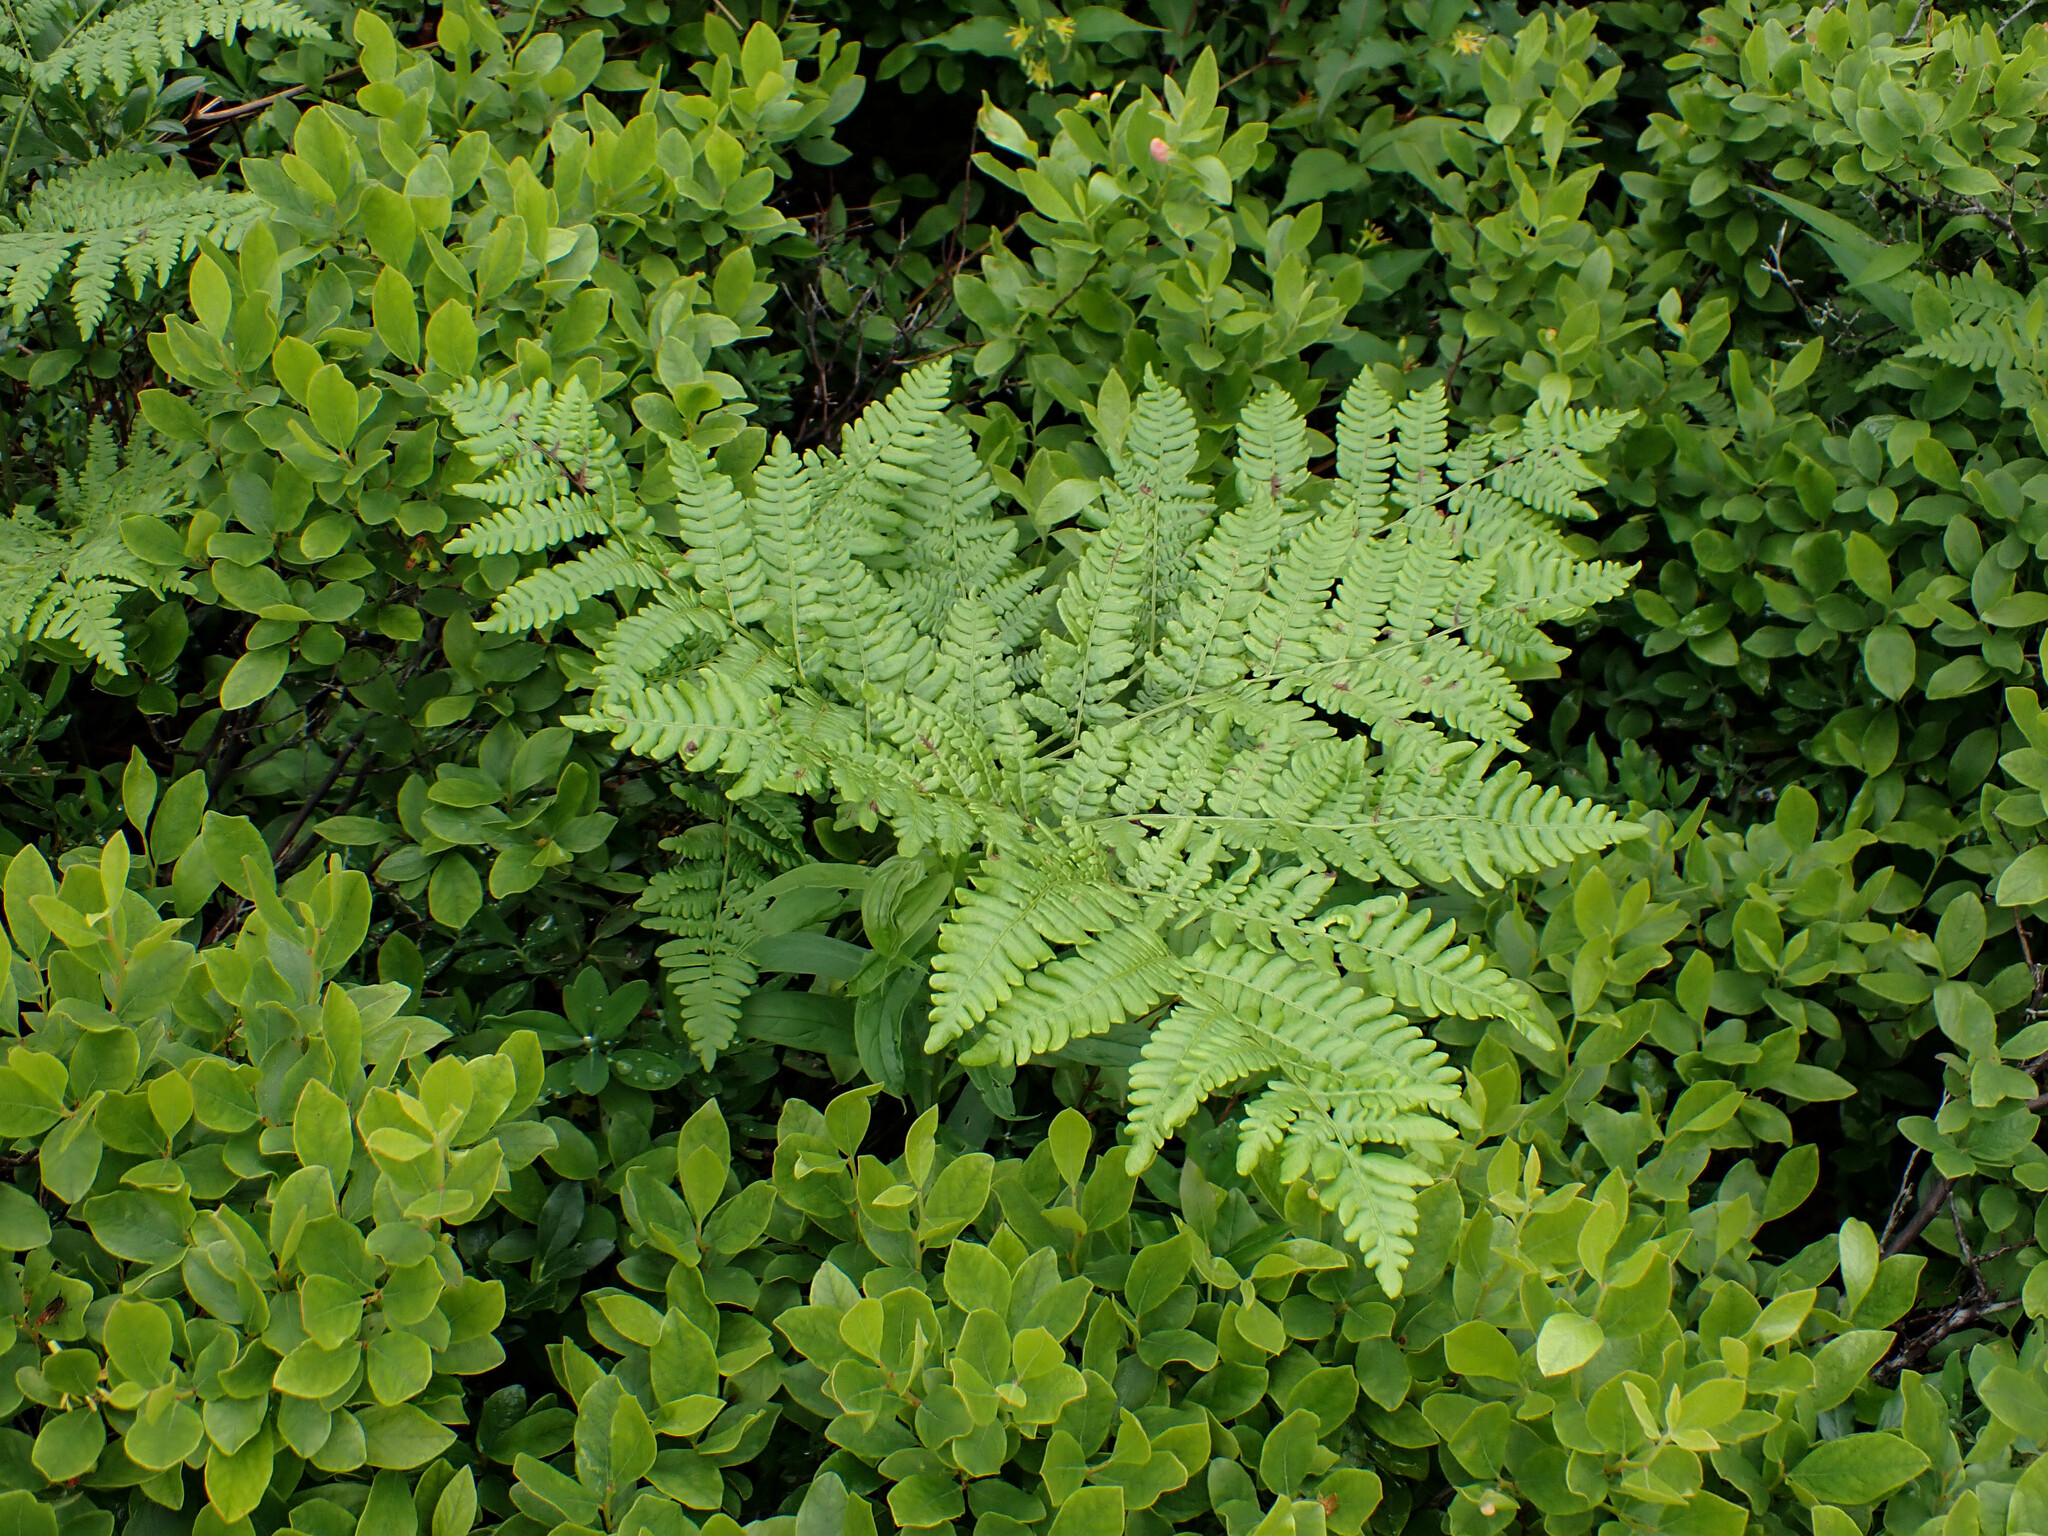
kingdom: Plantae
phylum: Tracheophyta
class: Polypodiopsida
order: Polypodiales
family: Dennstaedtiaceae
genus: Pteridium
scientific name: Pteridium aquilinum
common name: Bracken
